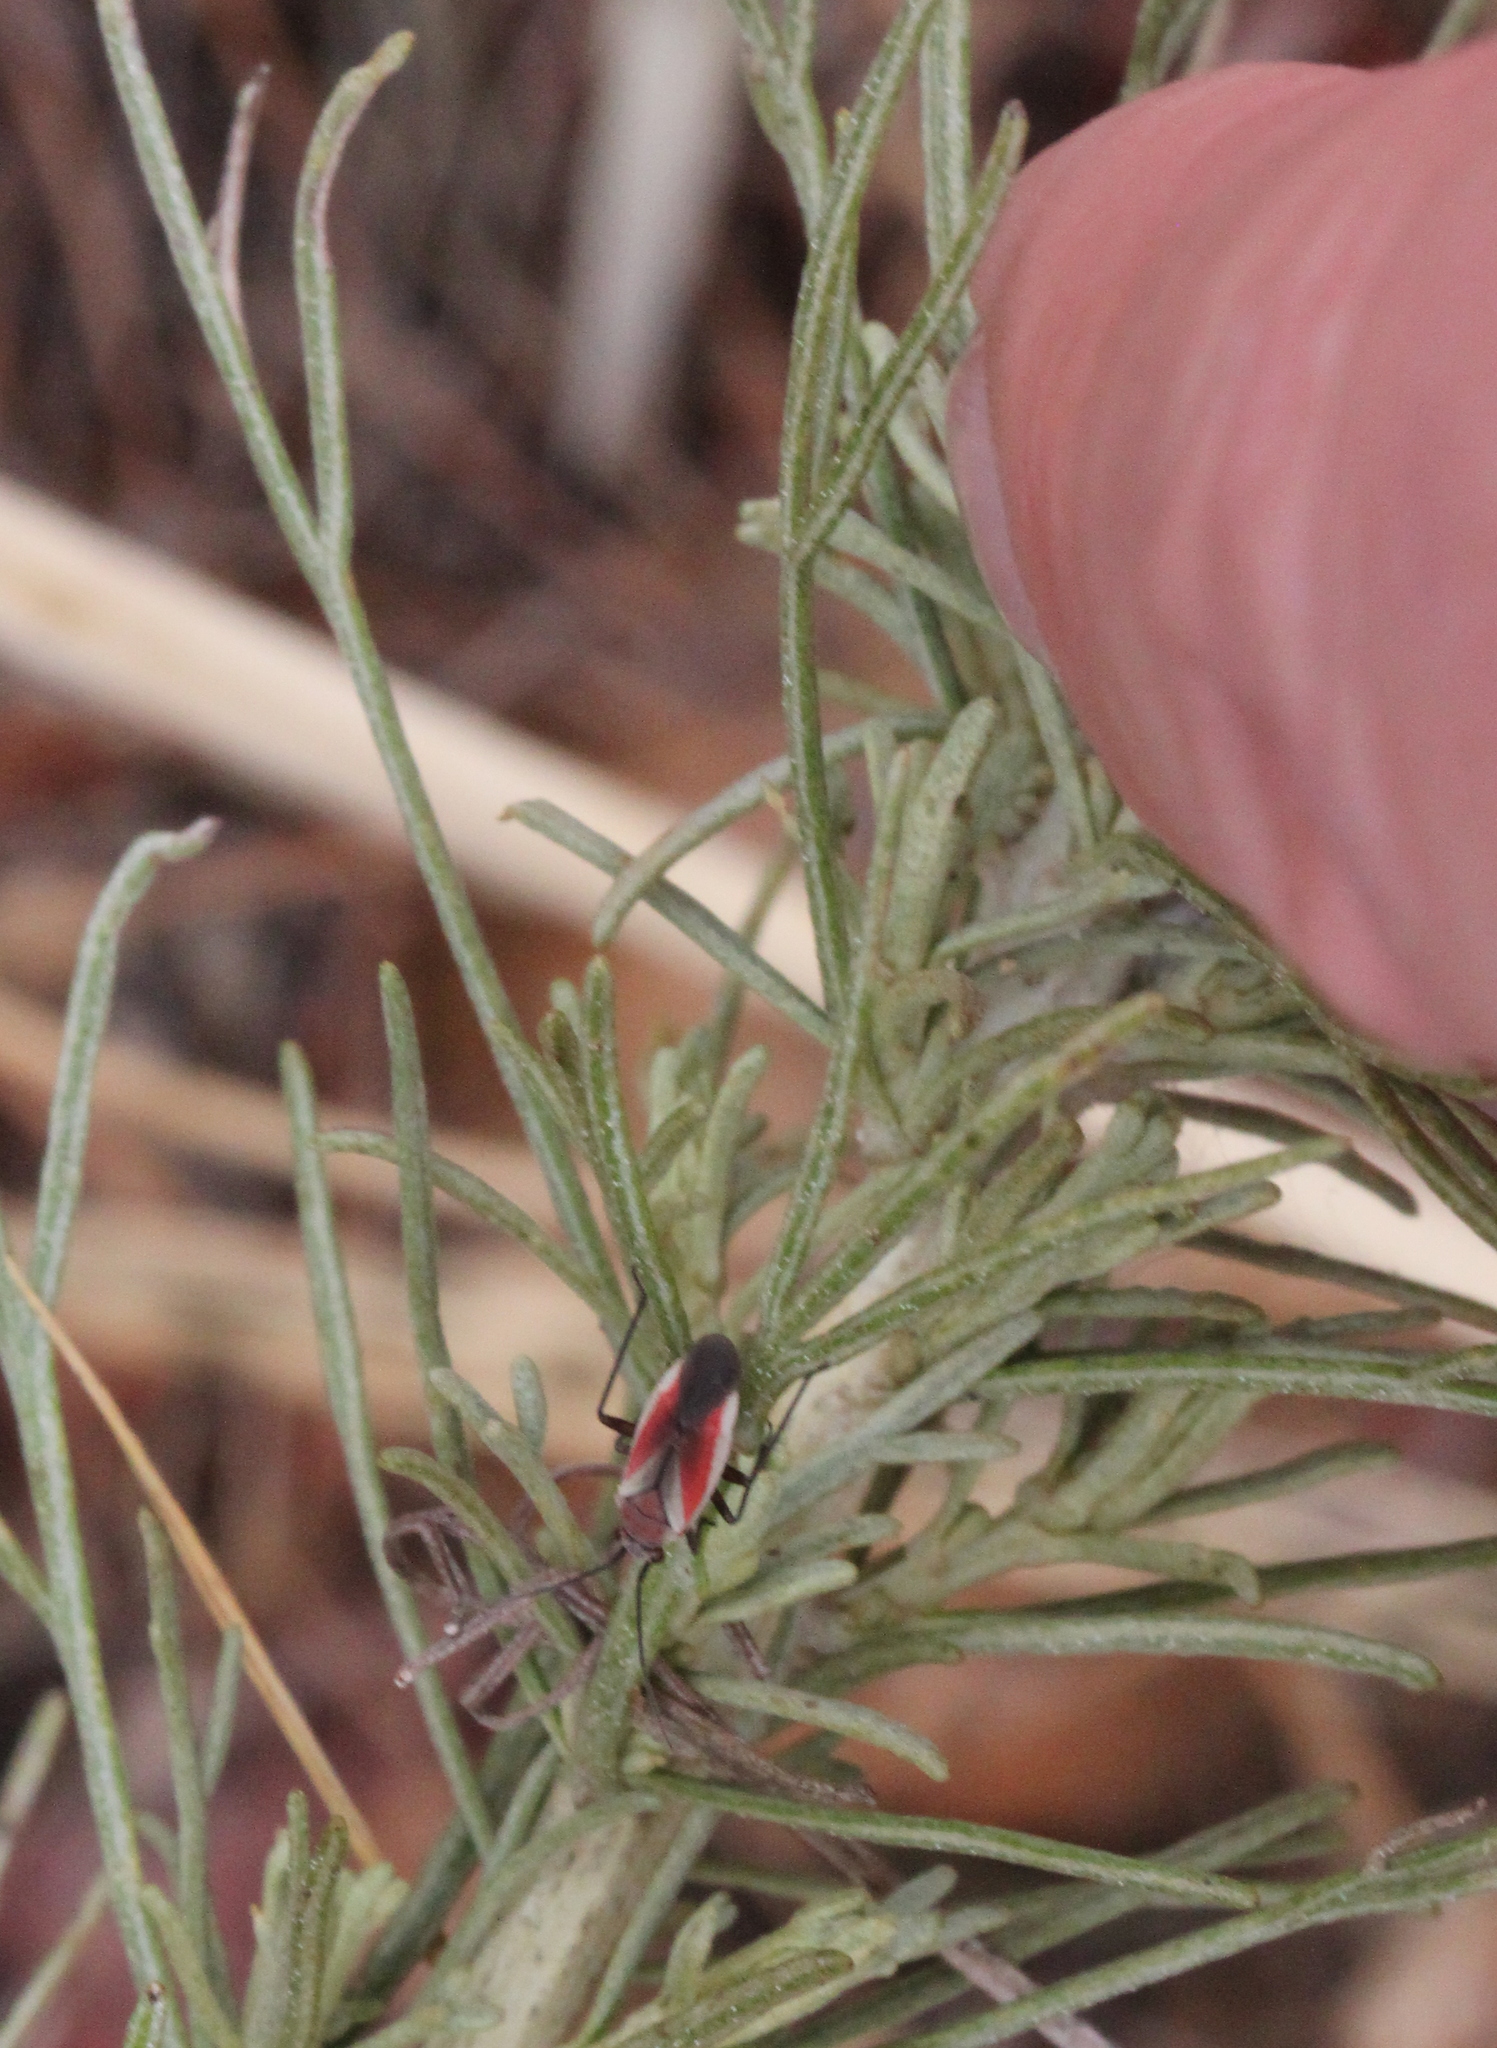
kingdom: Animalia
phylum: Arthropoda
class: Insecta
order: Hemiptera
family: Miridae
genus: Lopidea
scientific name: Lopidea marginata
